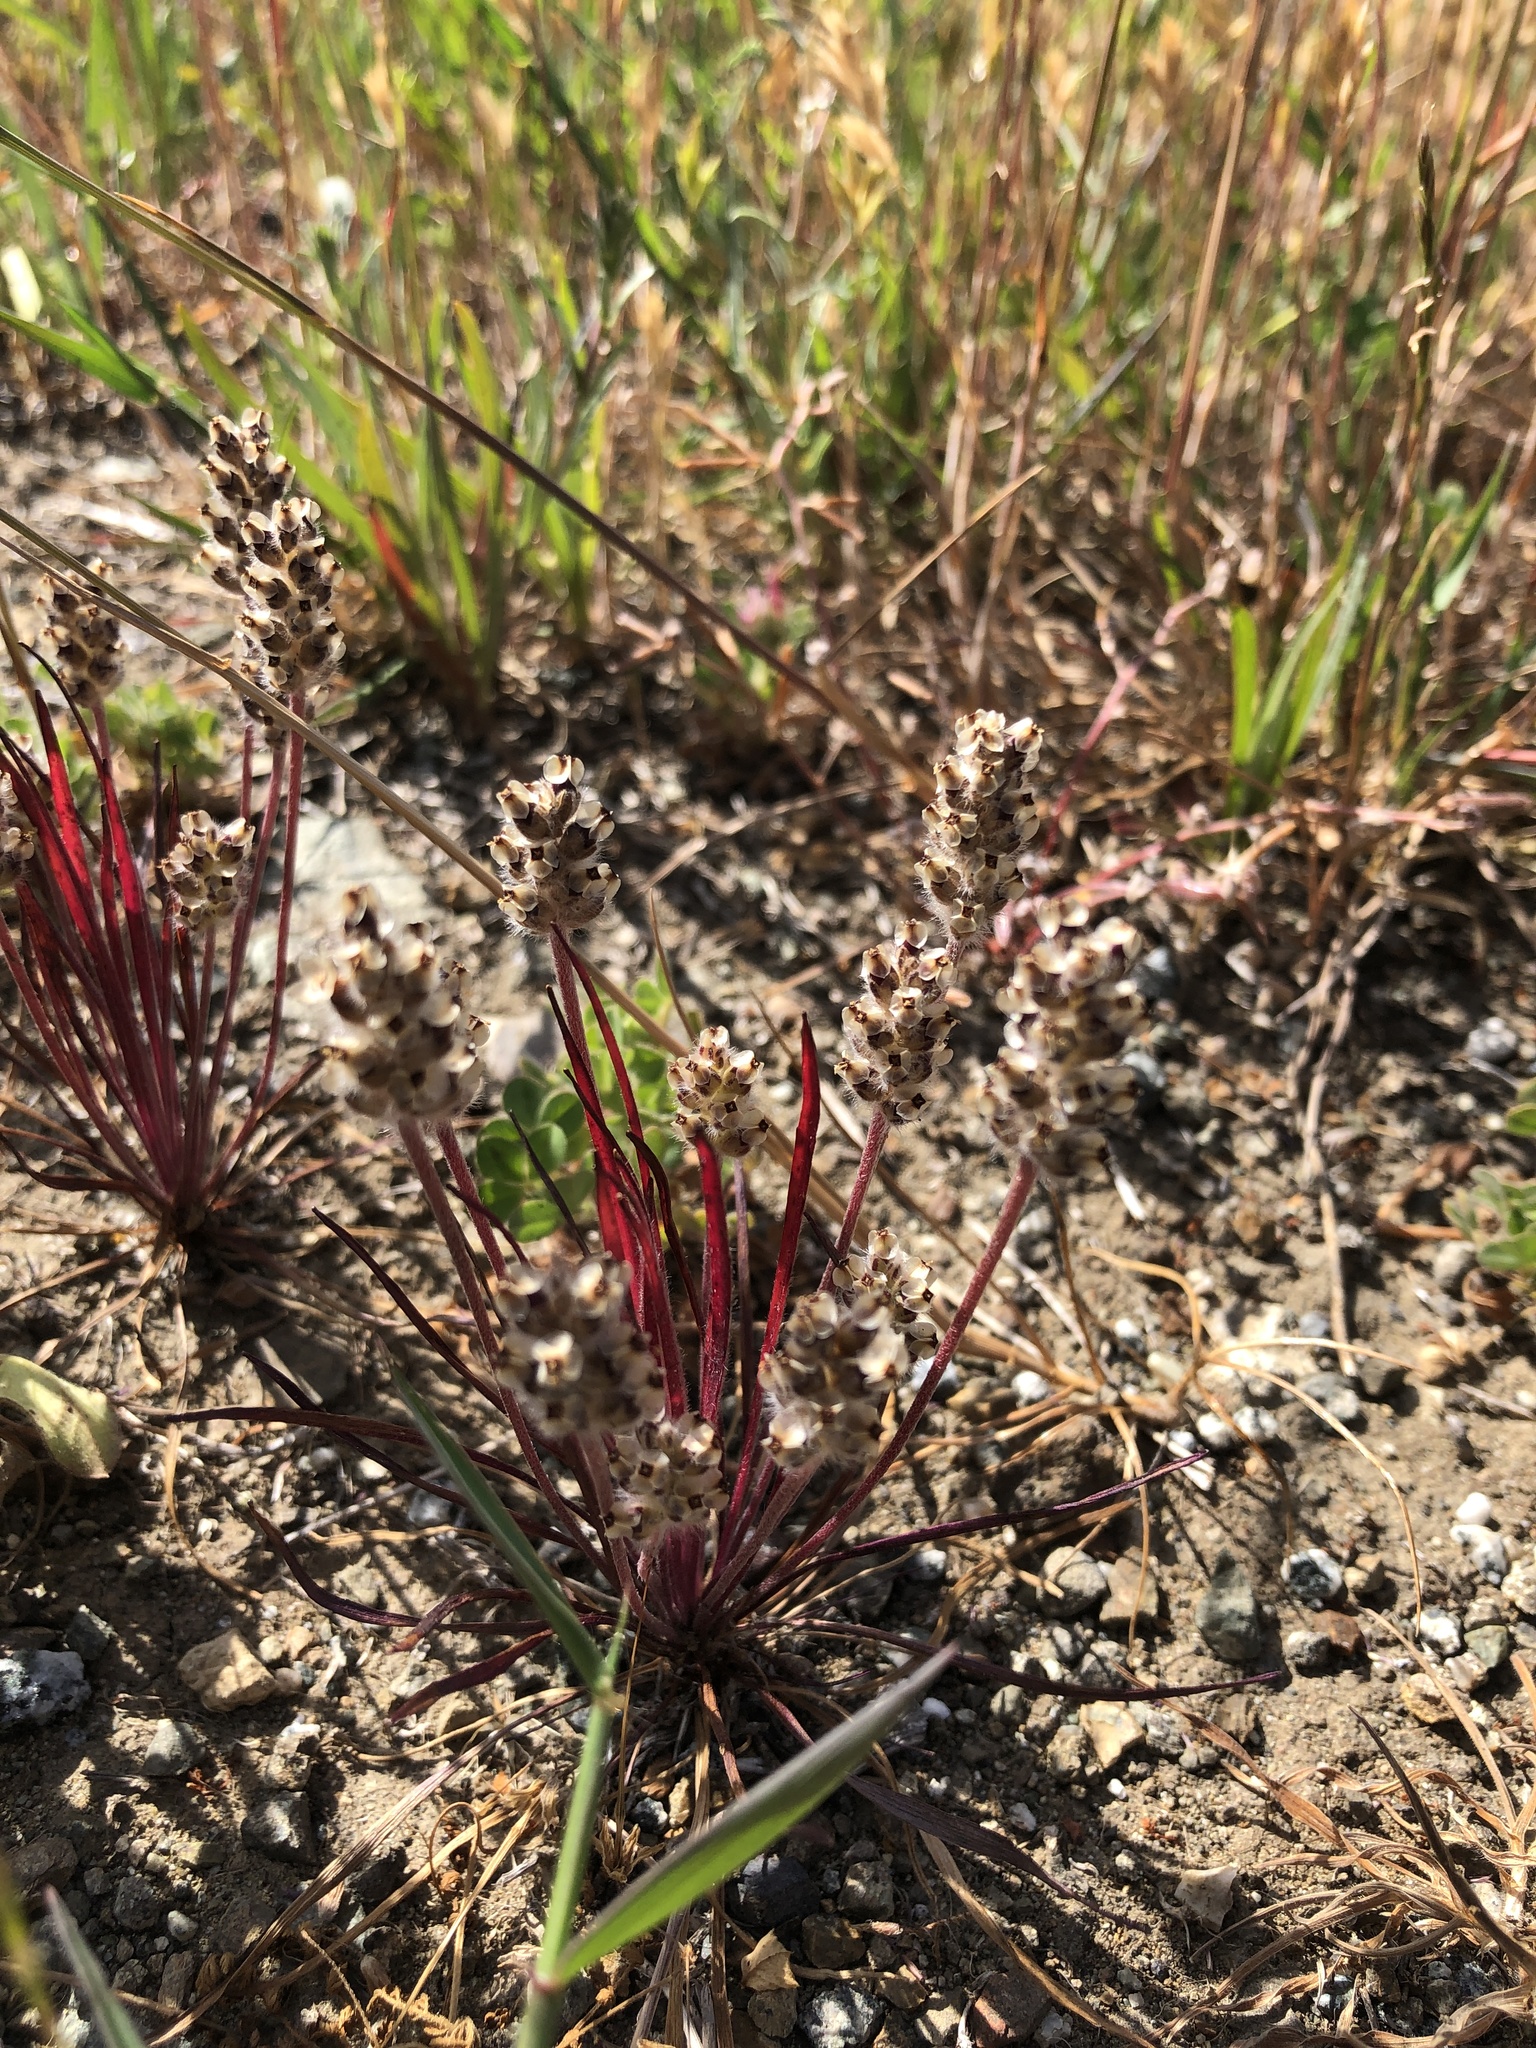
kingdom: Plantae
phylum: Tracheophyta
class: Magnoliopsida
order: Lamiales
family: Plantaginaceae
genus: Plantago
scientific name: Plantago erecta
